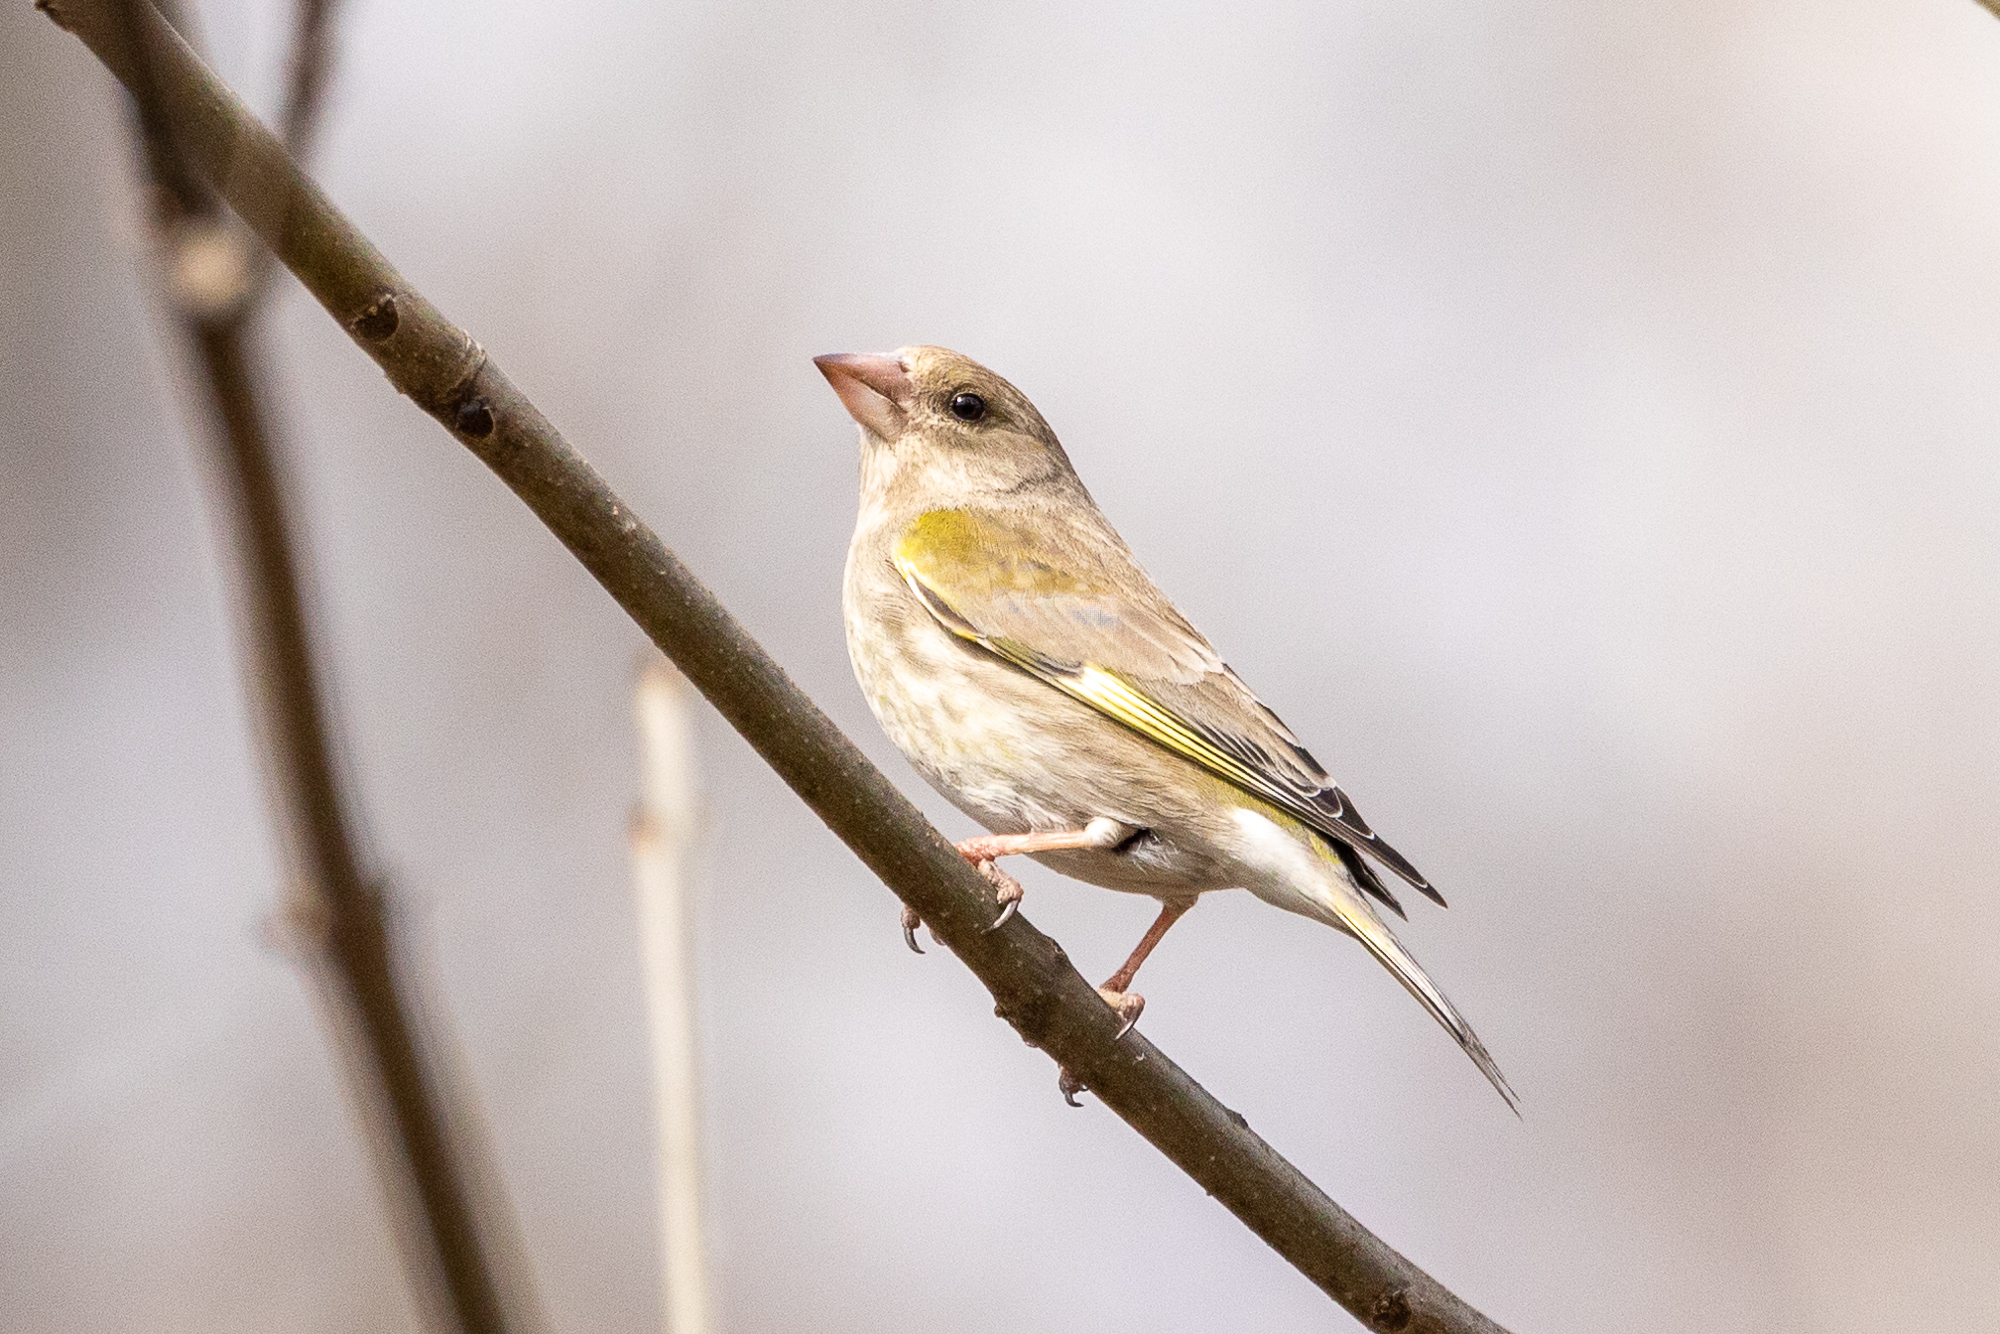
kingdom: Plantae
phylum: Tracheophyta
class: Liliopsida
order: Poales
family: Poaceae
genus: Chloris
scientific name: Chloris chloris
